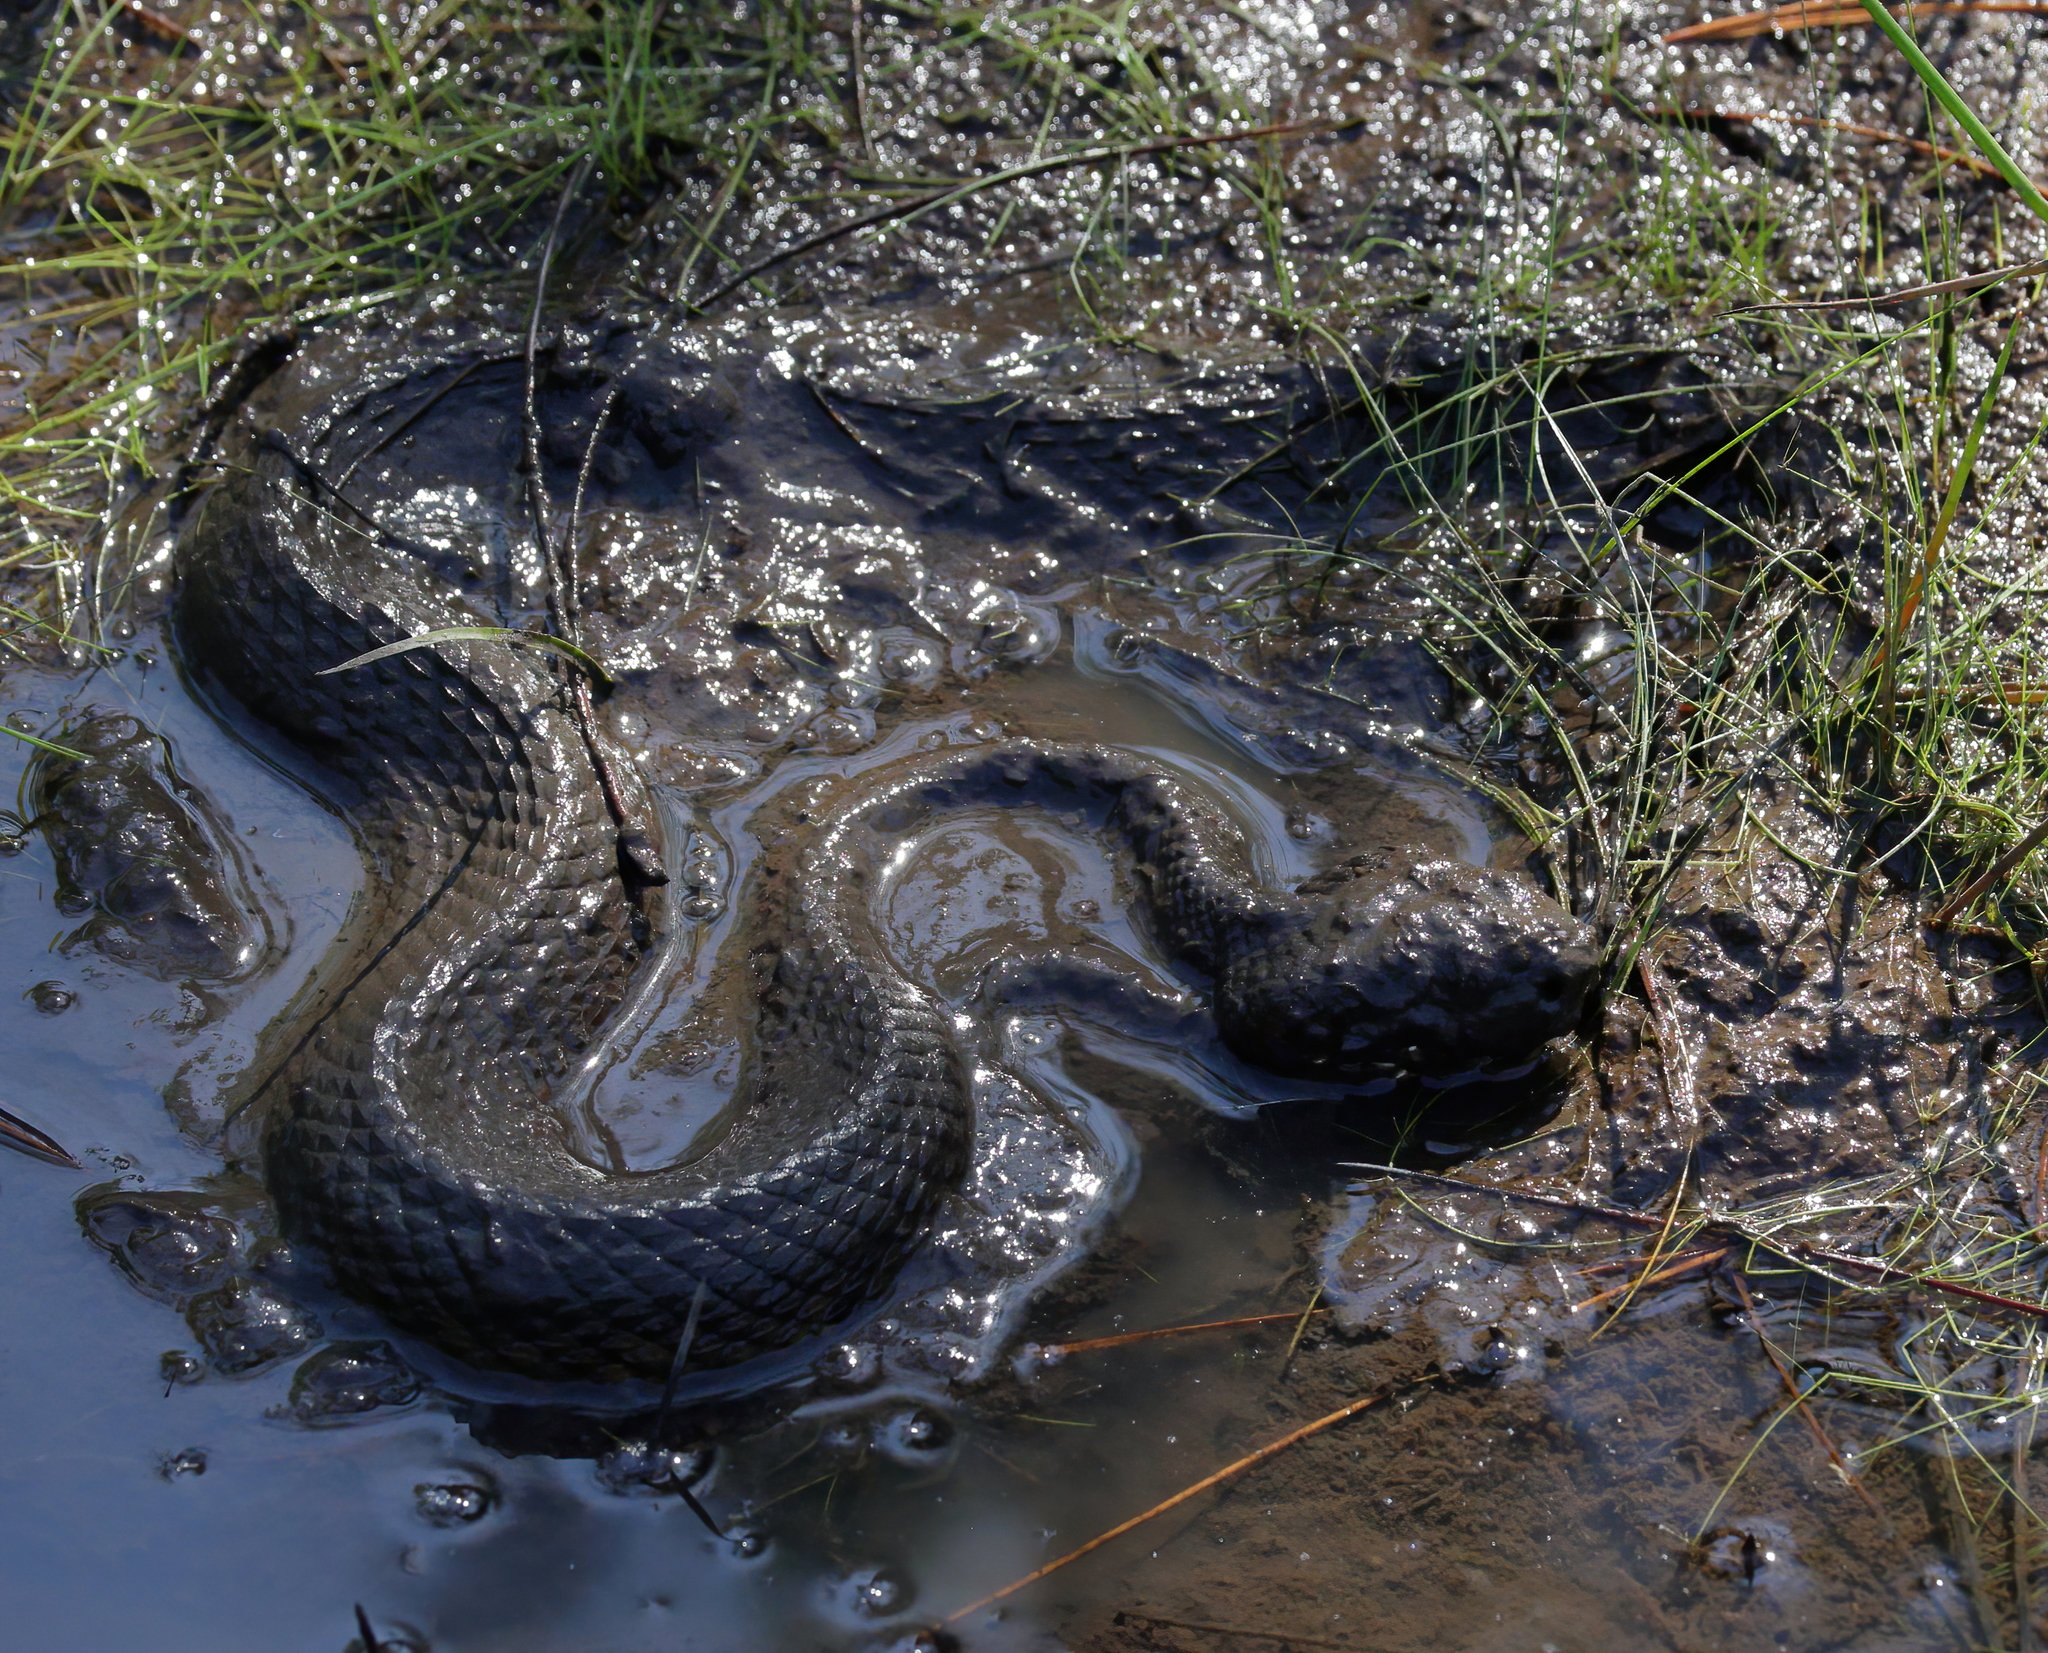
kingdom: Animalia
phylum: Chordata
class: Squamata
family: Viperidae
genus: Agkistrodon
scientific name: Agkistrodon piscivorus
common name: Cottonmouth
